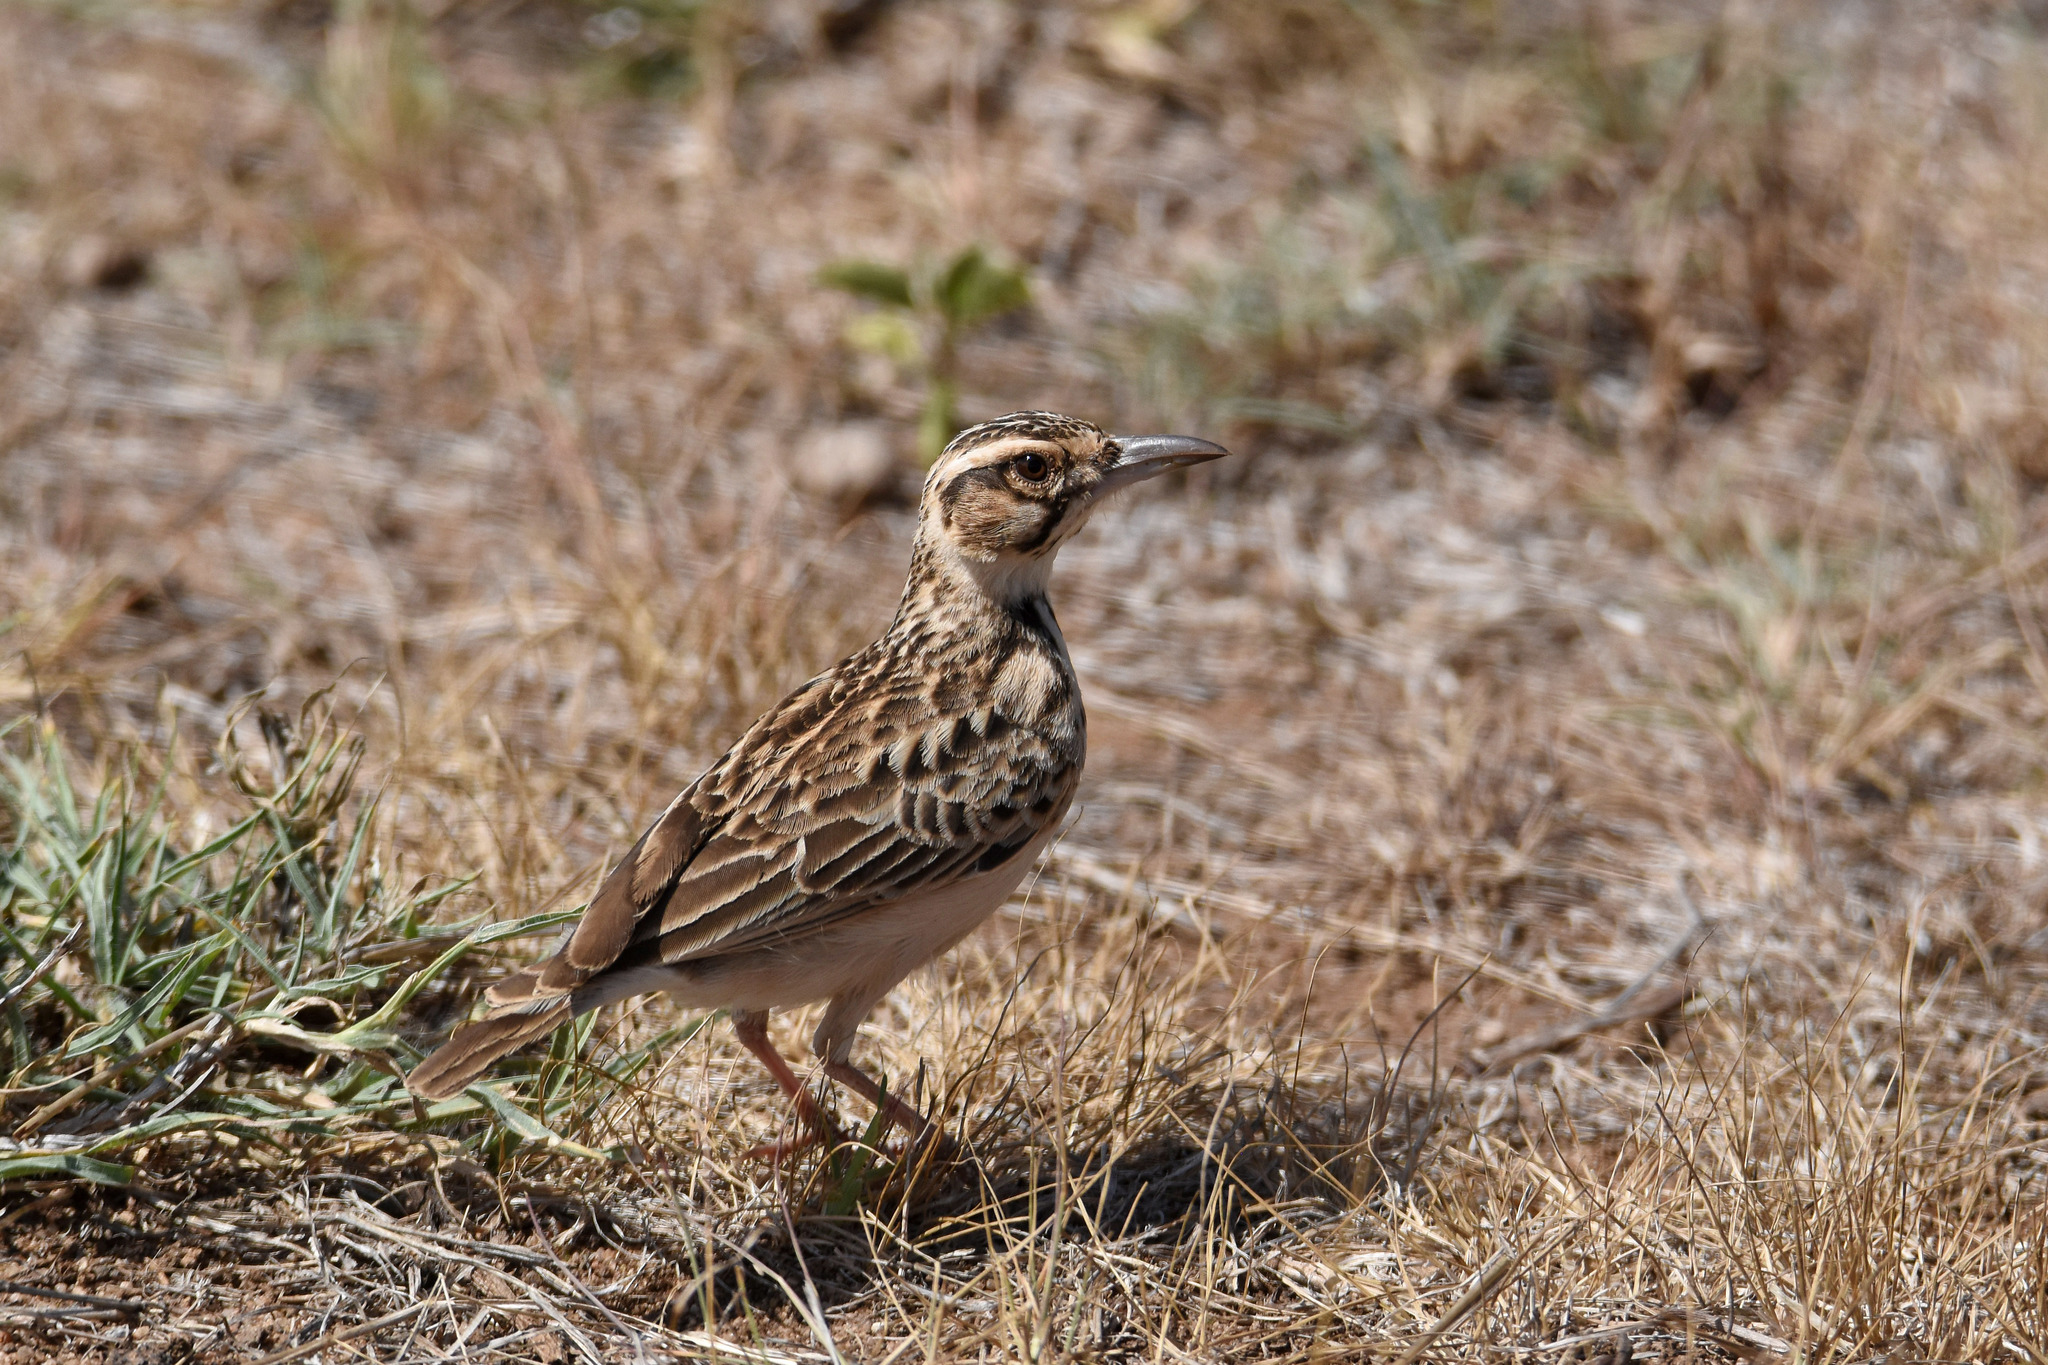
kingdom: Animalia
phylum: Chordata
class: Aves
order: Passeriformes
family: Alaudidae
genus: Pseudalaemon
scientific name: Pseudalaemon fremantlii
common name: Short-tailed lark
